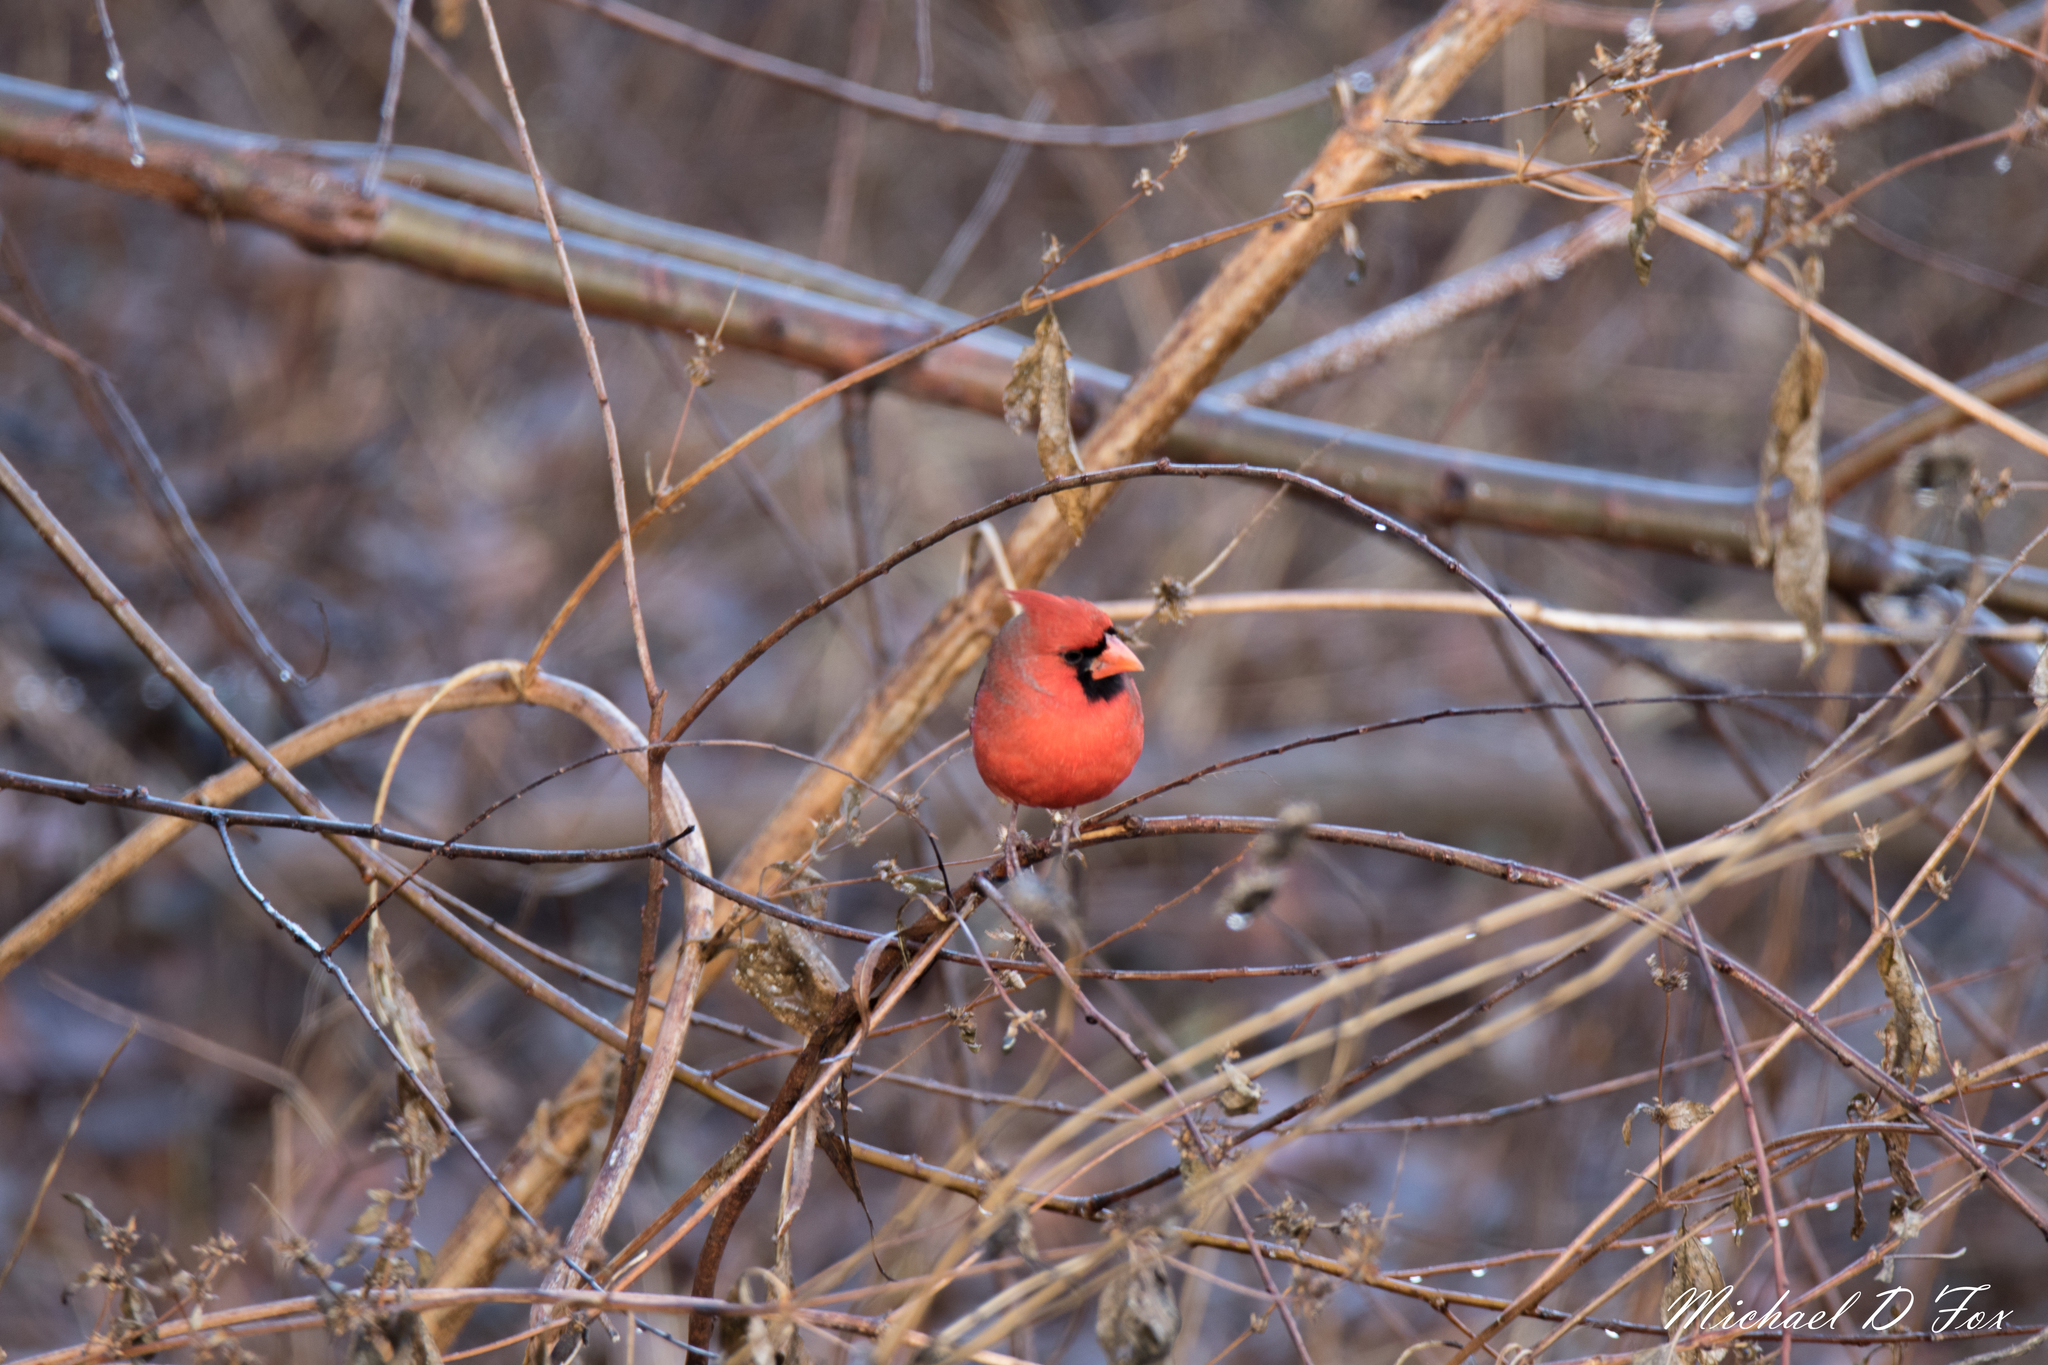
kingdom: Animalia
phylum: Chordata
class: Aves
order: Passeriformes
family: Cardinalidae
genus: Cardinalis
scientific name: Cardinalis cardinalis
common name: Northern cardinal
